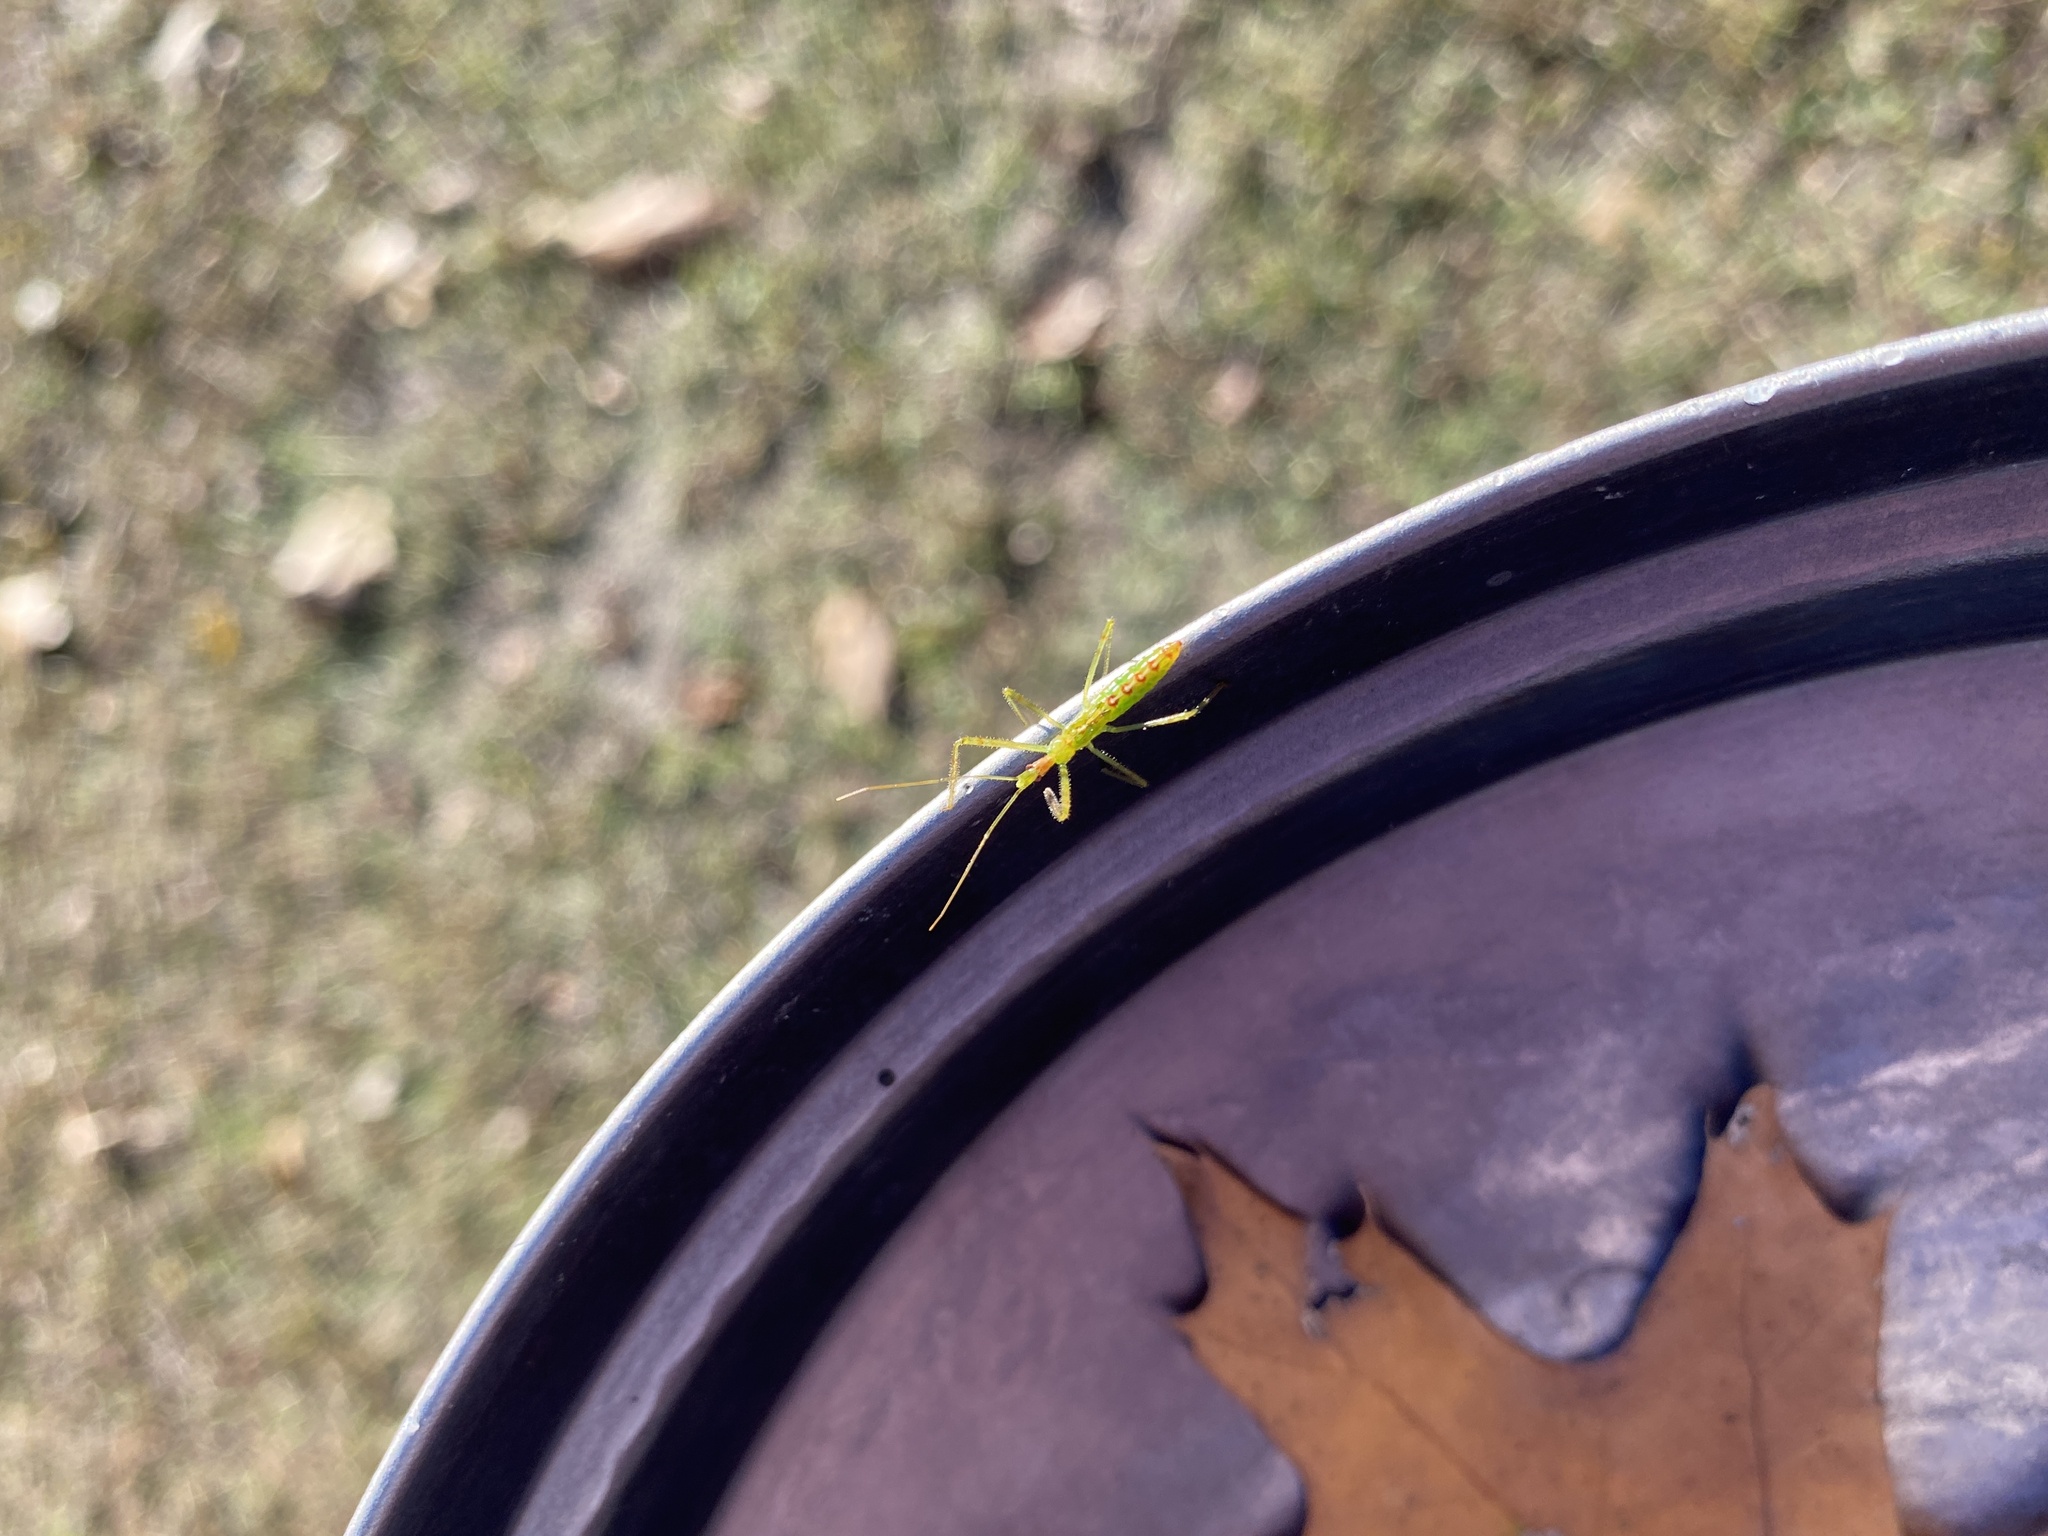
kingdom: Animalia
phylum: Arthropoda
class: Insecta
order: Hemiptera
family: Reduviidae
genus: Zelus
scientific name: Zelus luridus
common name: Pale green assassin bug
